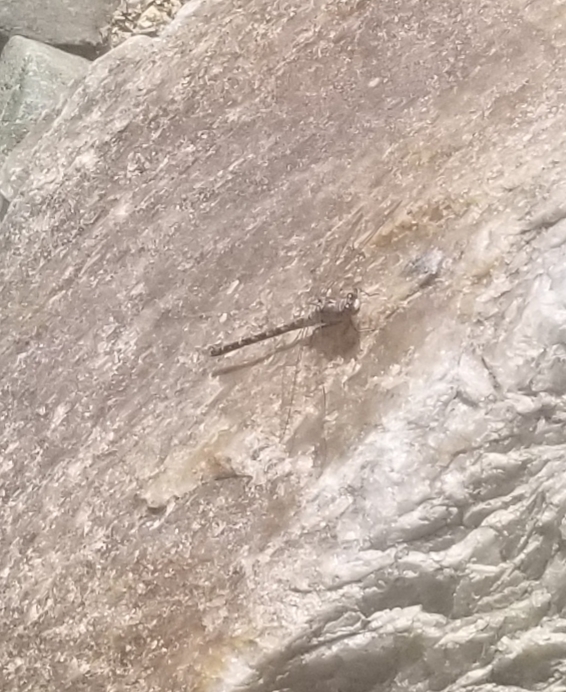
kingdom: Animalia
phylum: Arthropoda
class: Insecta
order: Odonata
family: Petaluridae
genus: Tachopteryx
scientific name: Tachopteryx thoreyi
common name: Gray petaltail
